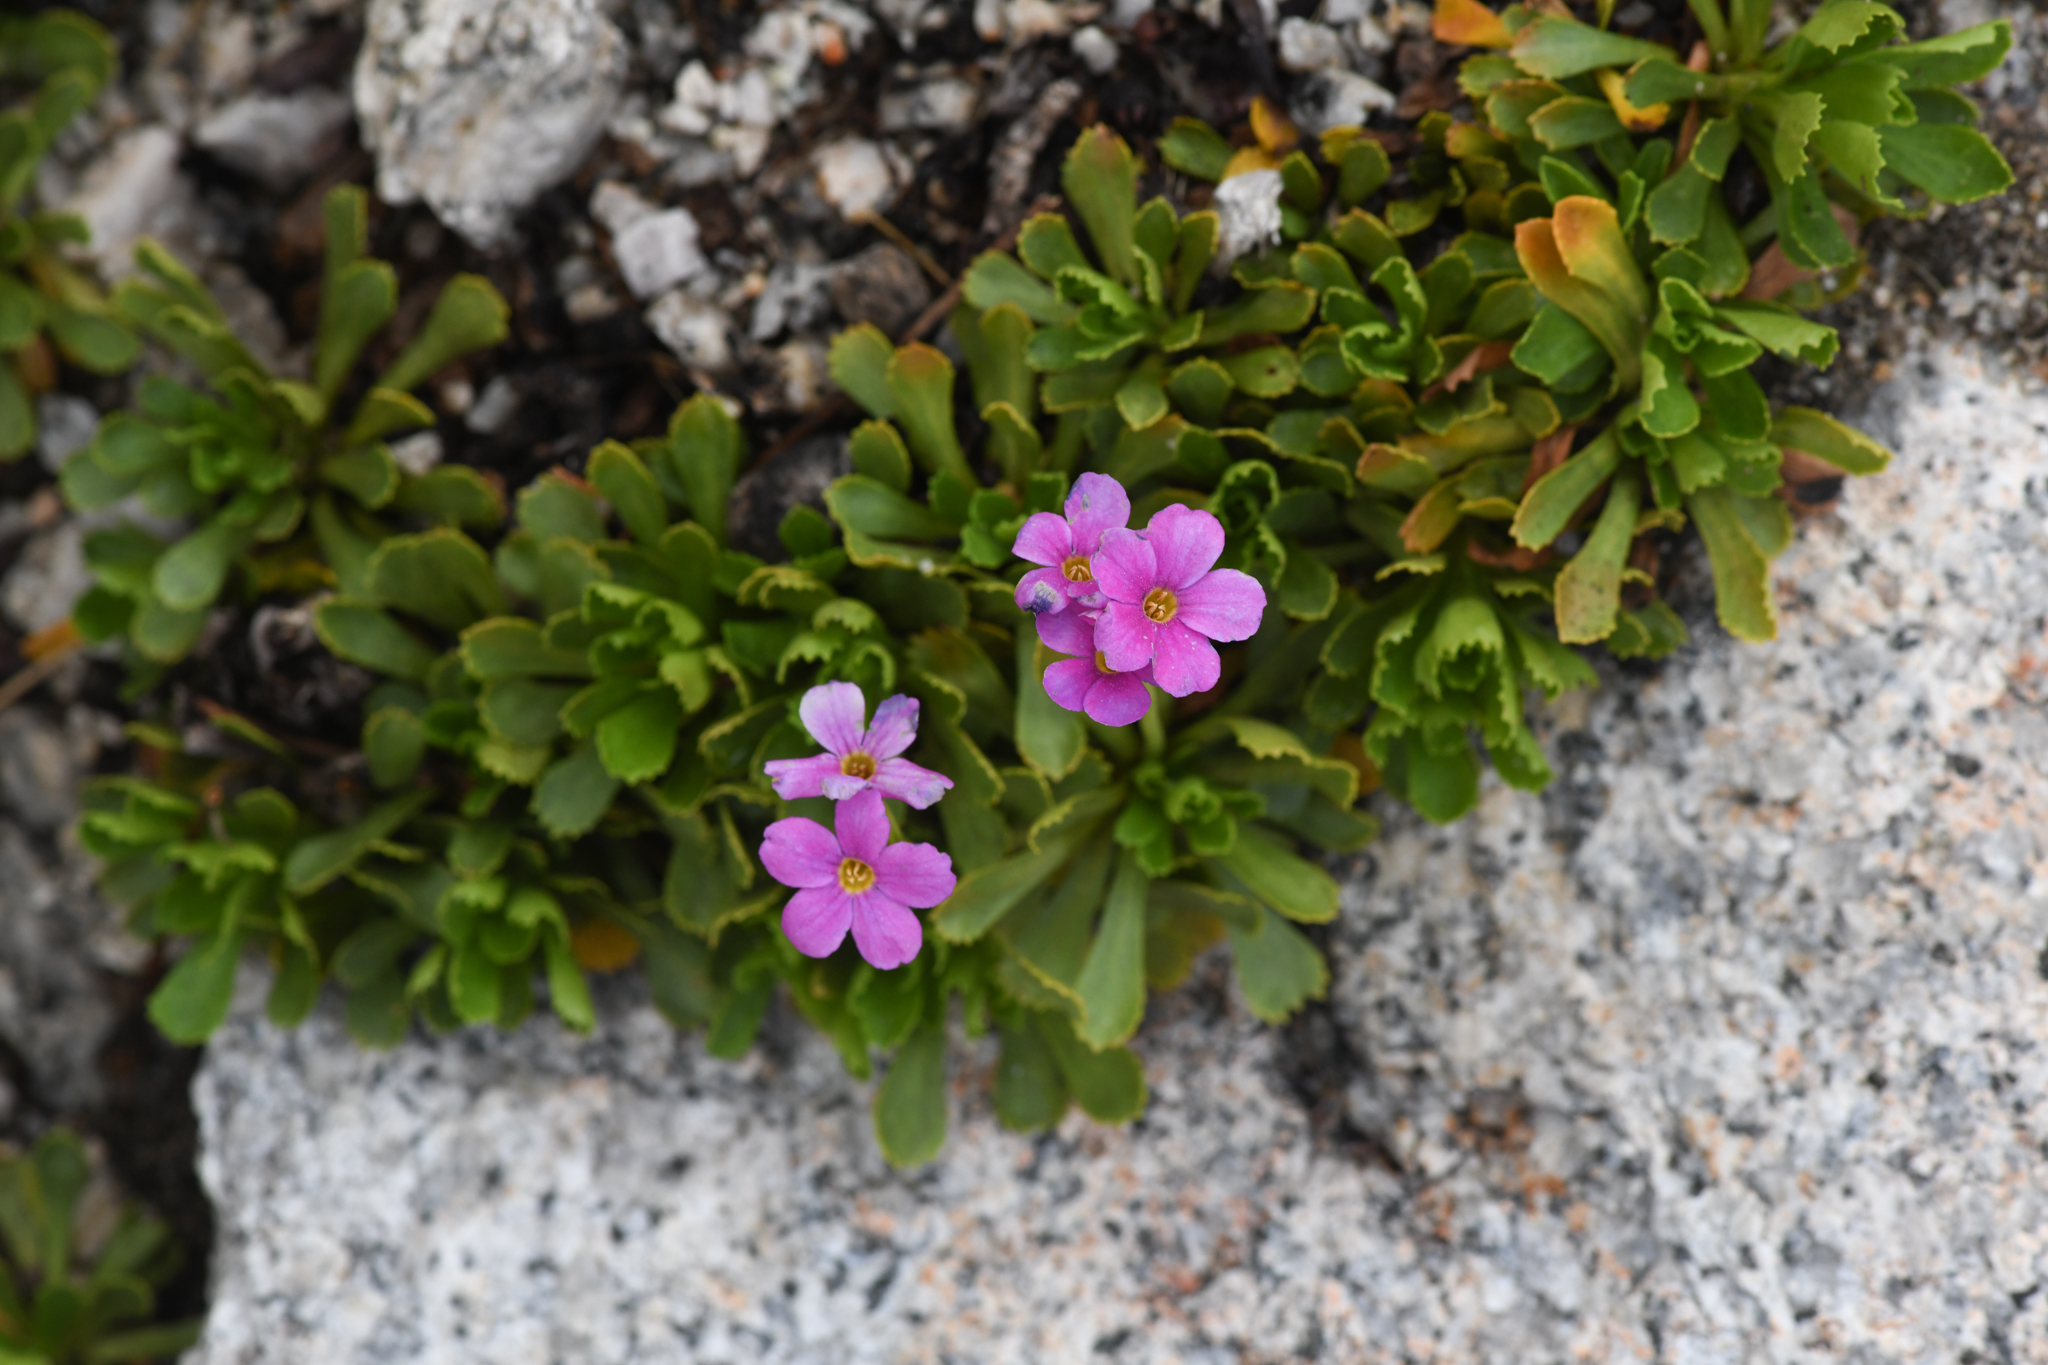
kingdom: Plantae
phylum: Tracheophyta
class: Magnoliopsida
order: Ericales
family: Primulaceae
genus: Primula
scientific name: Primula suffrutescens
